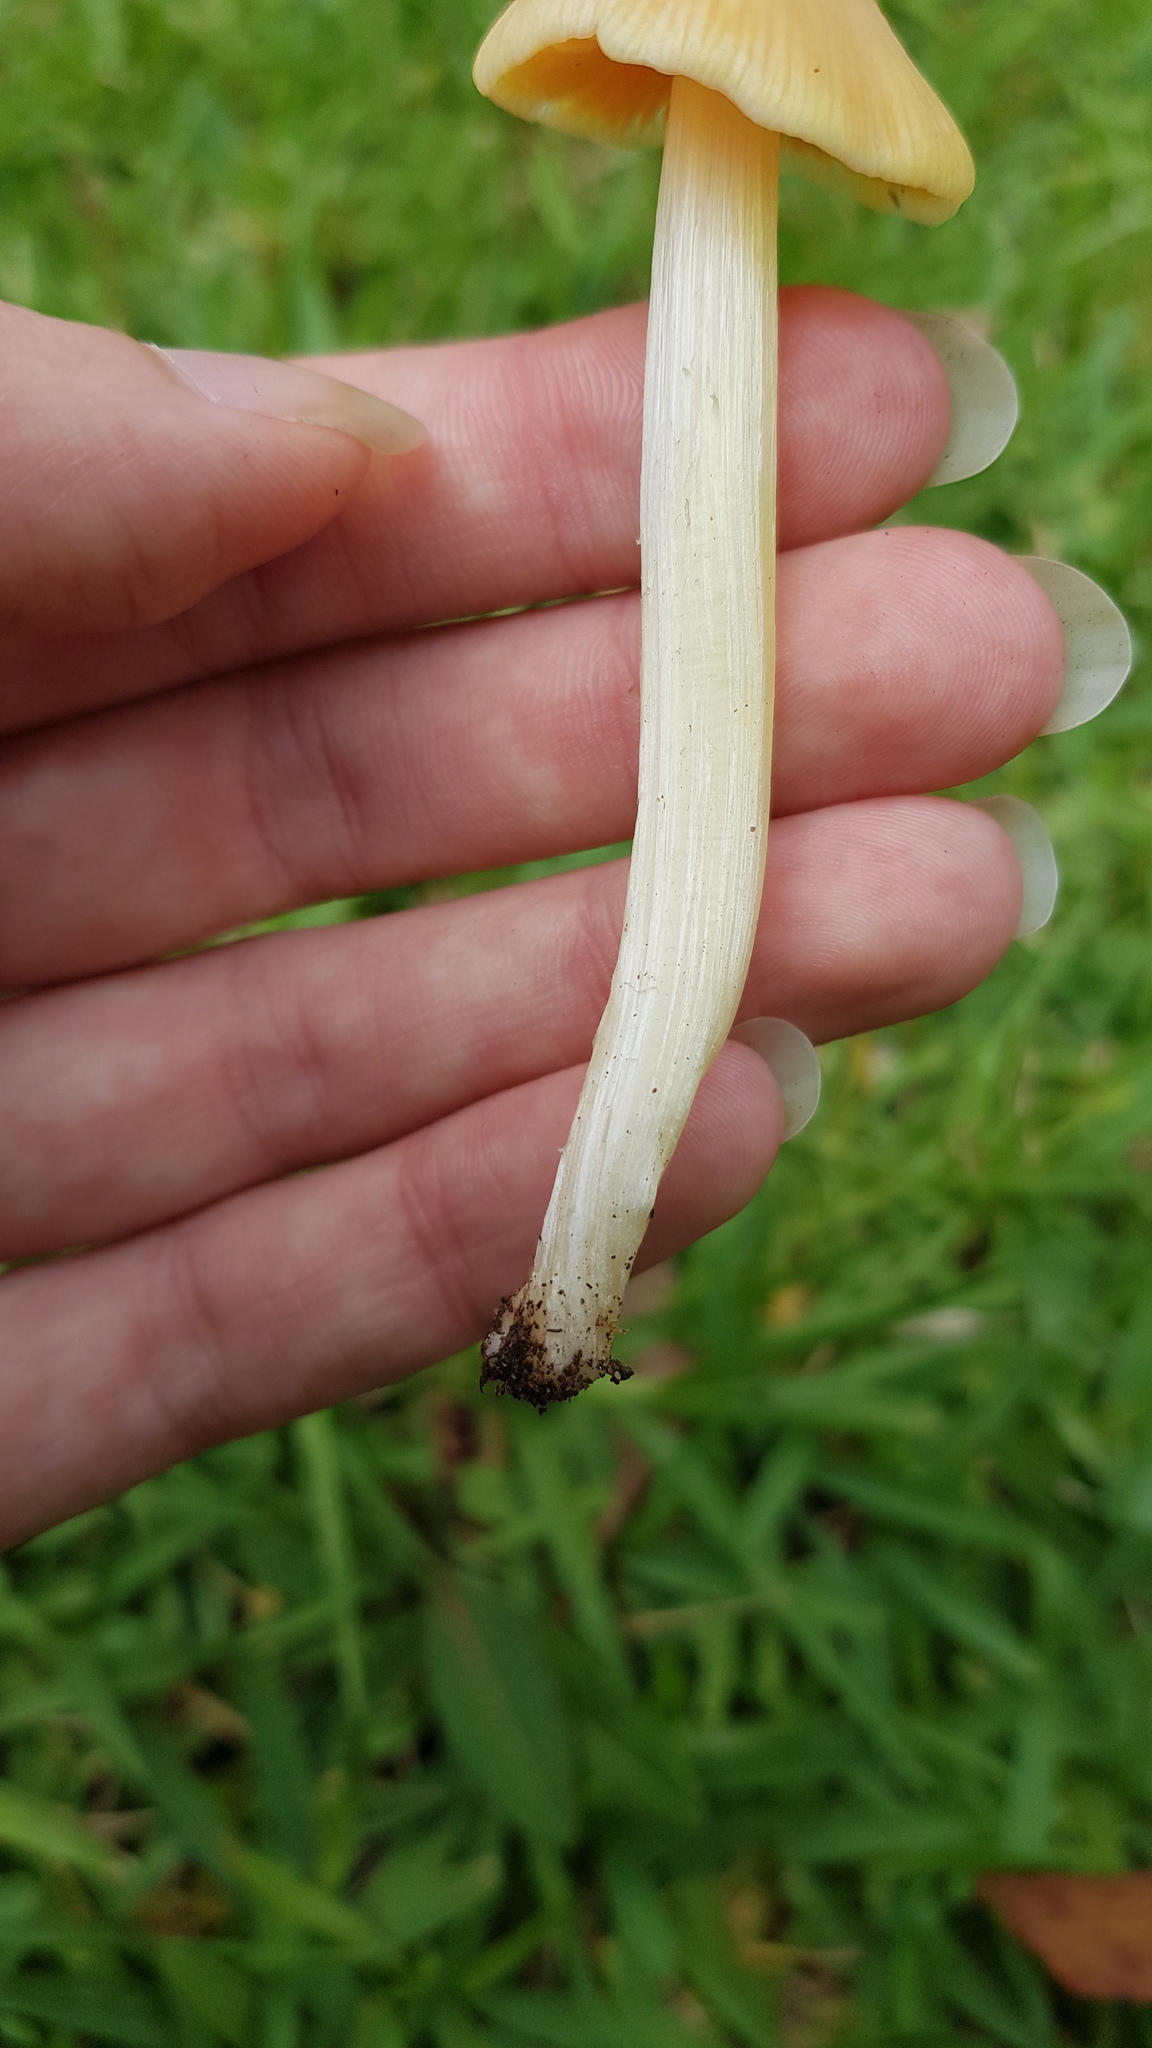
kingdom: Fungi
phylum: Basidiomycota
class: Agaricomycetes
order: Agaricales
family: Hygrophoraceae
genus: Hygrocybe
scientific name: Hygrocybe acutoconica
